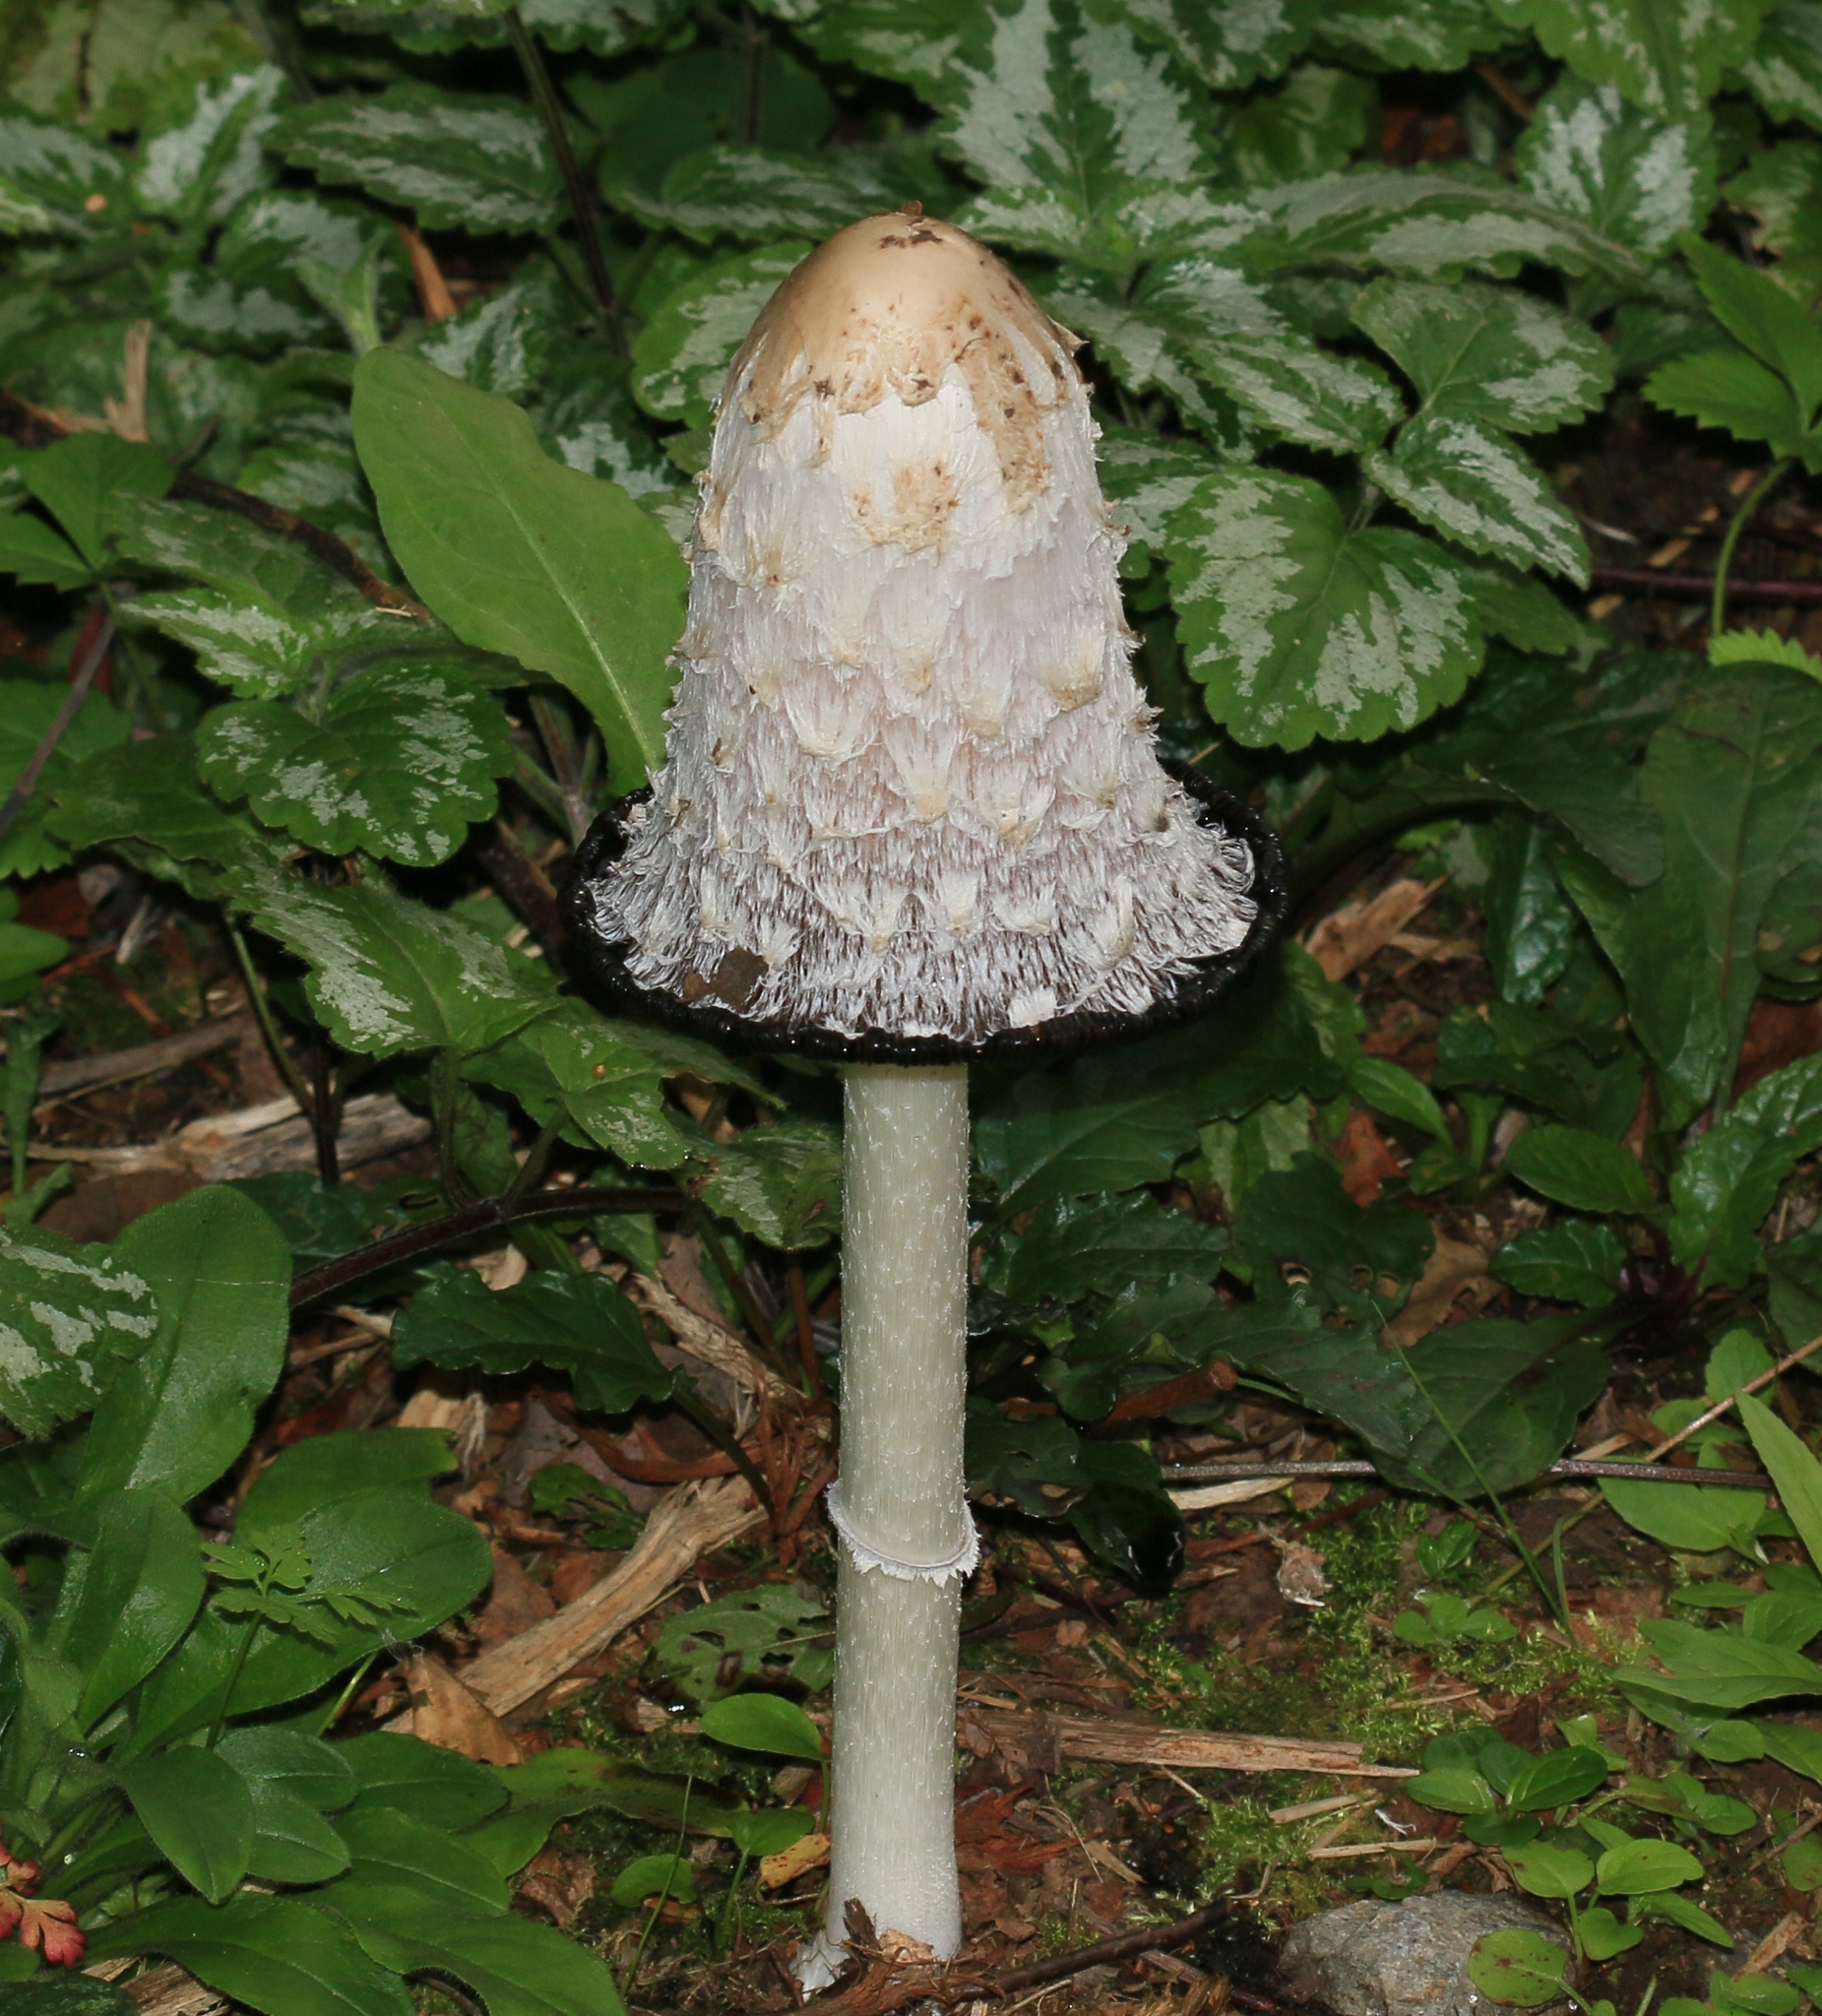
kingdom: Fungi
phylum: Basidiomycota
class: Agaricomycetes
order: Agaricales
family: Agaricaceae
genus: Coprinus
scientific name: Coprinus comatus
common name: Lawyer's wig
